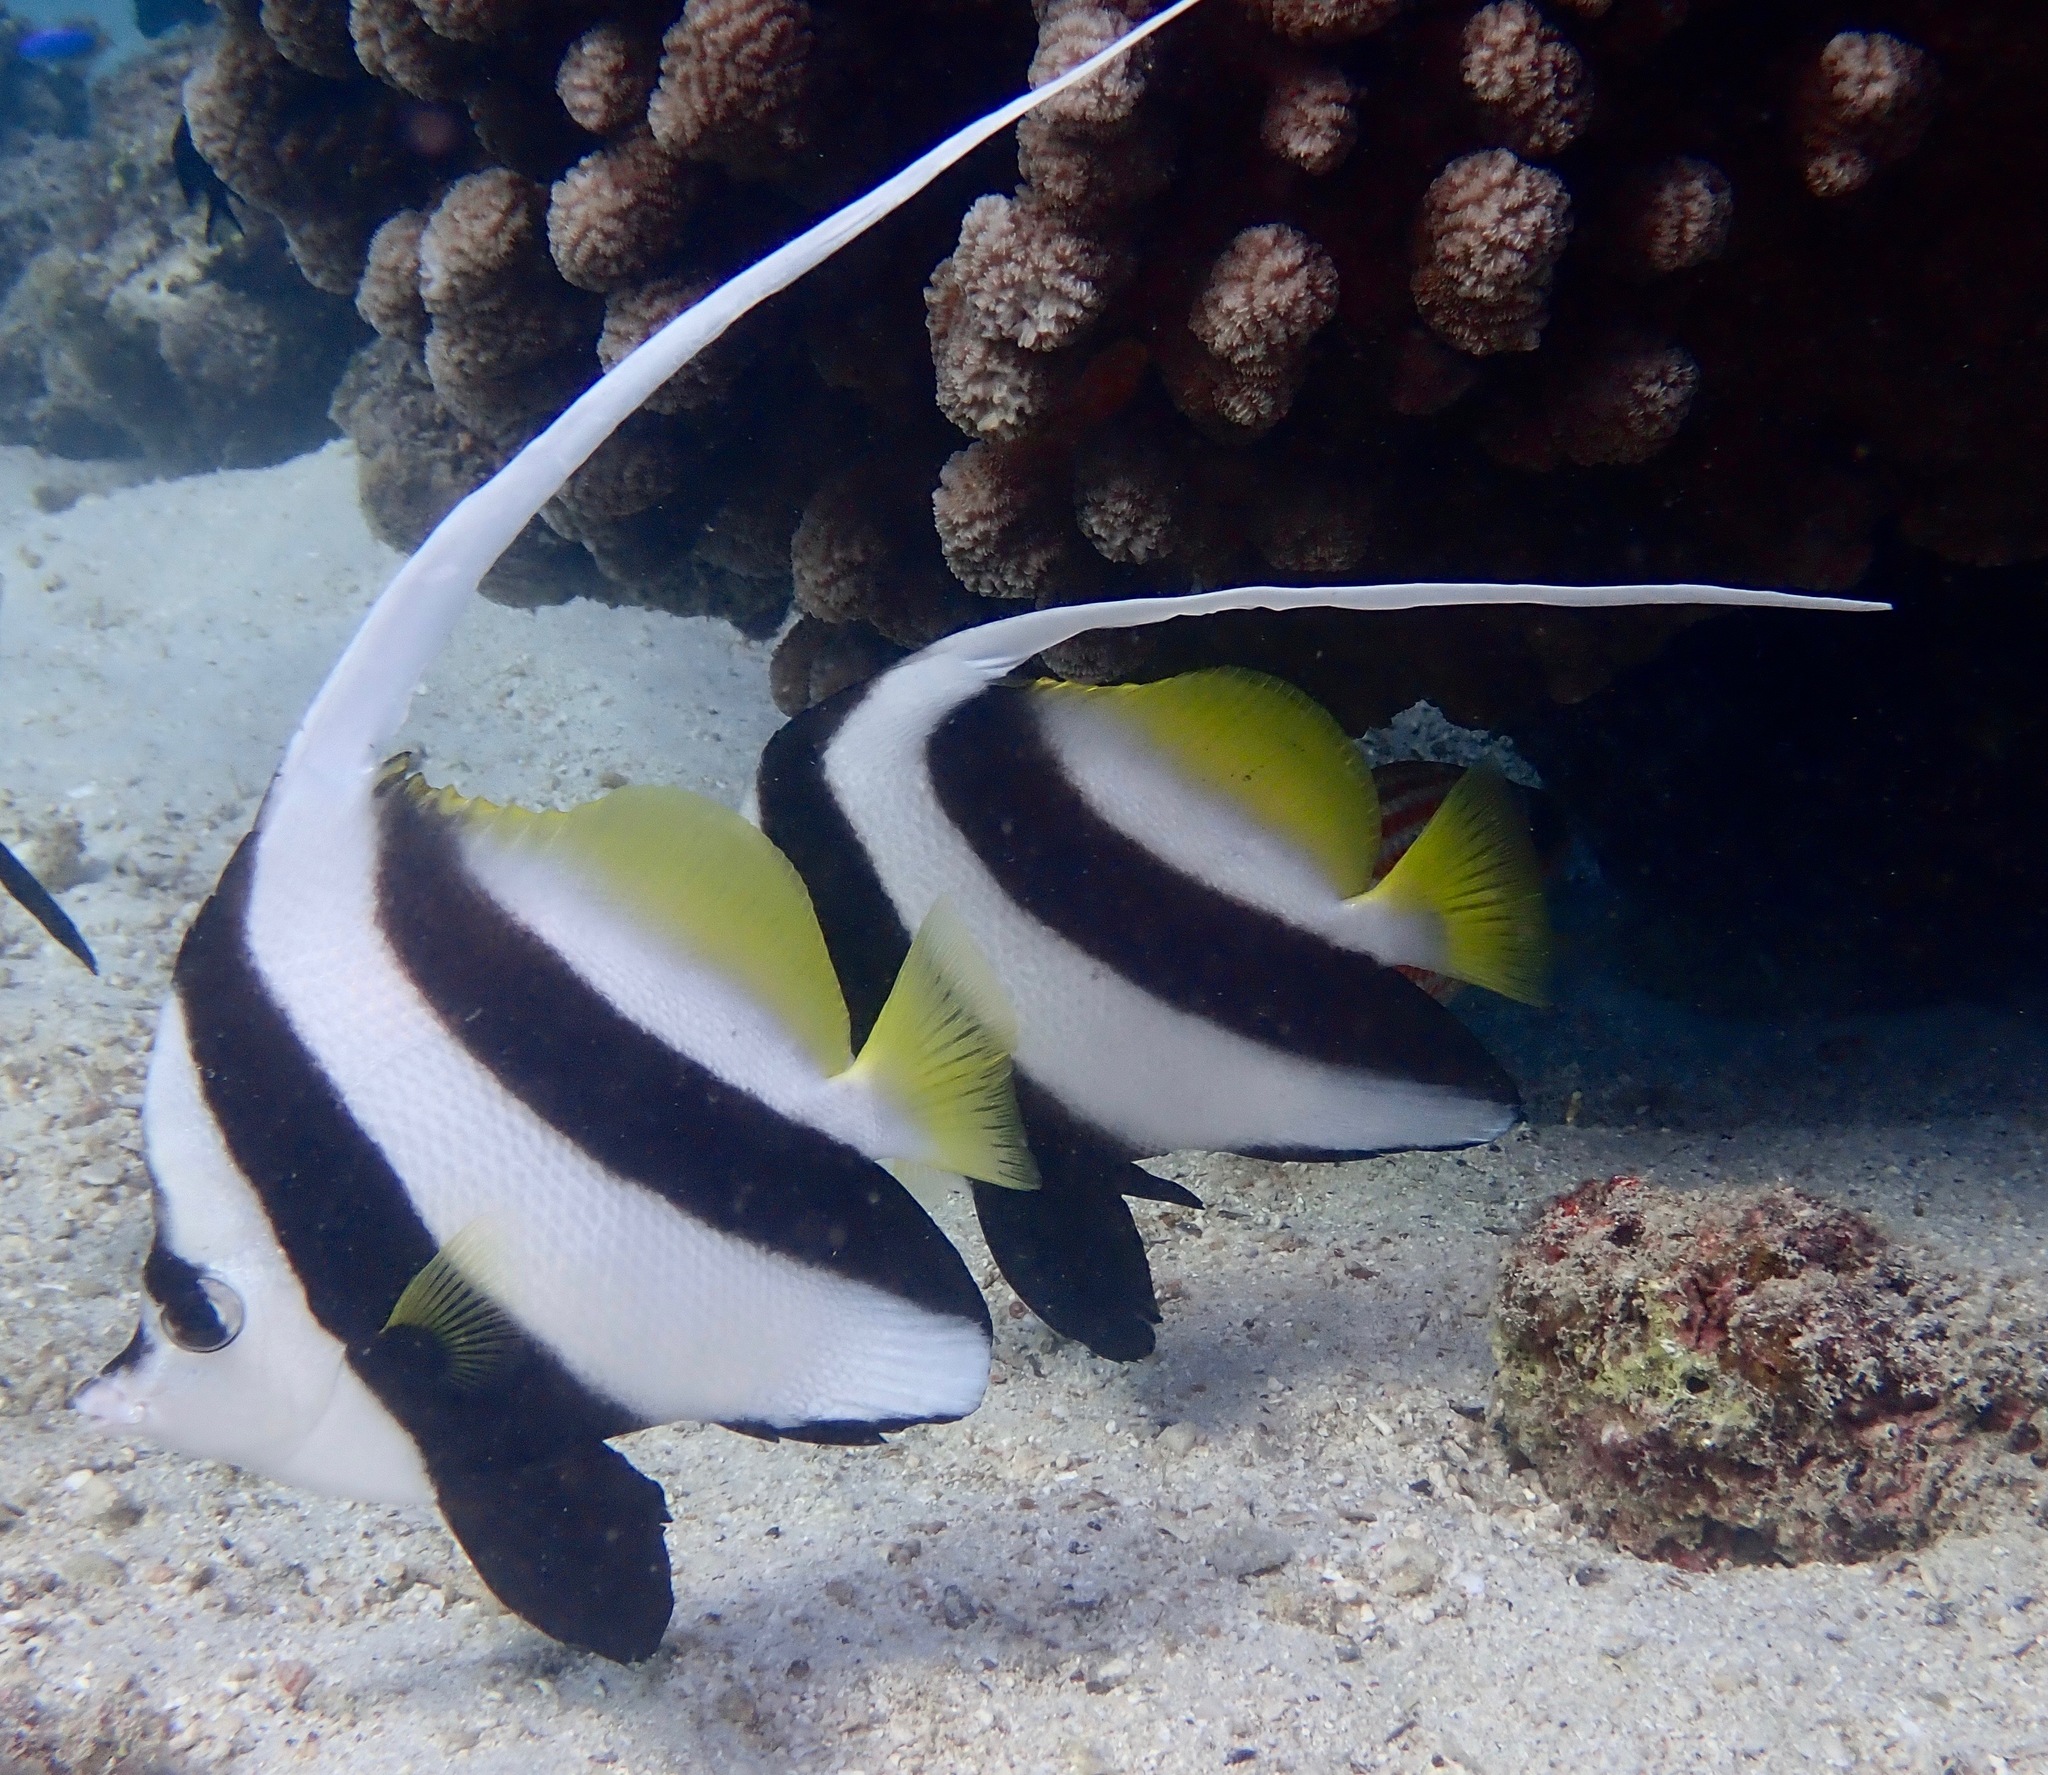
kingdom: Animalia
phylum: Chordata
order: Perciformes
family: Chaetodontidae
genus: Heniochus
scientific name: Heniochus acuminatus
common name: Pennant coralfish
